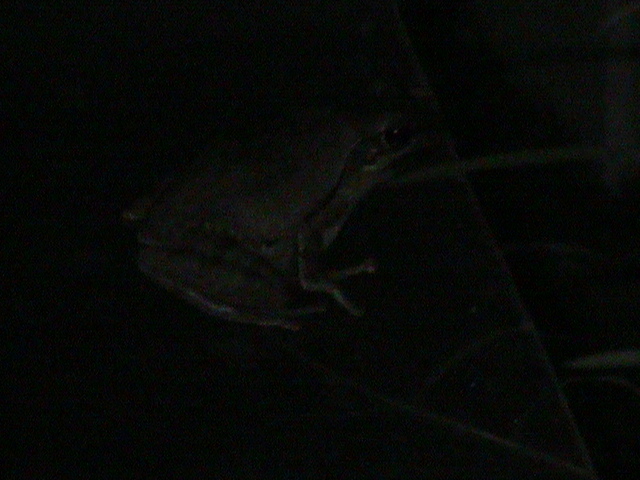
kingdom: Animalia
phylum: Chordata
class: Amphibia
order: Anura
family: Rhacophoridae
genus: Polypedates
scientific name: Polypedates maculatus
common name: Himalayan tree frog
